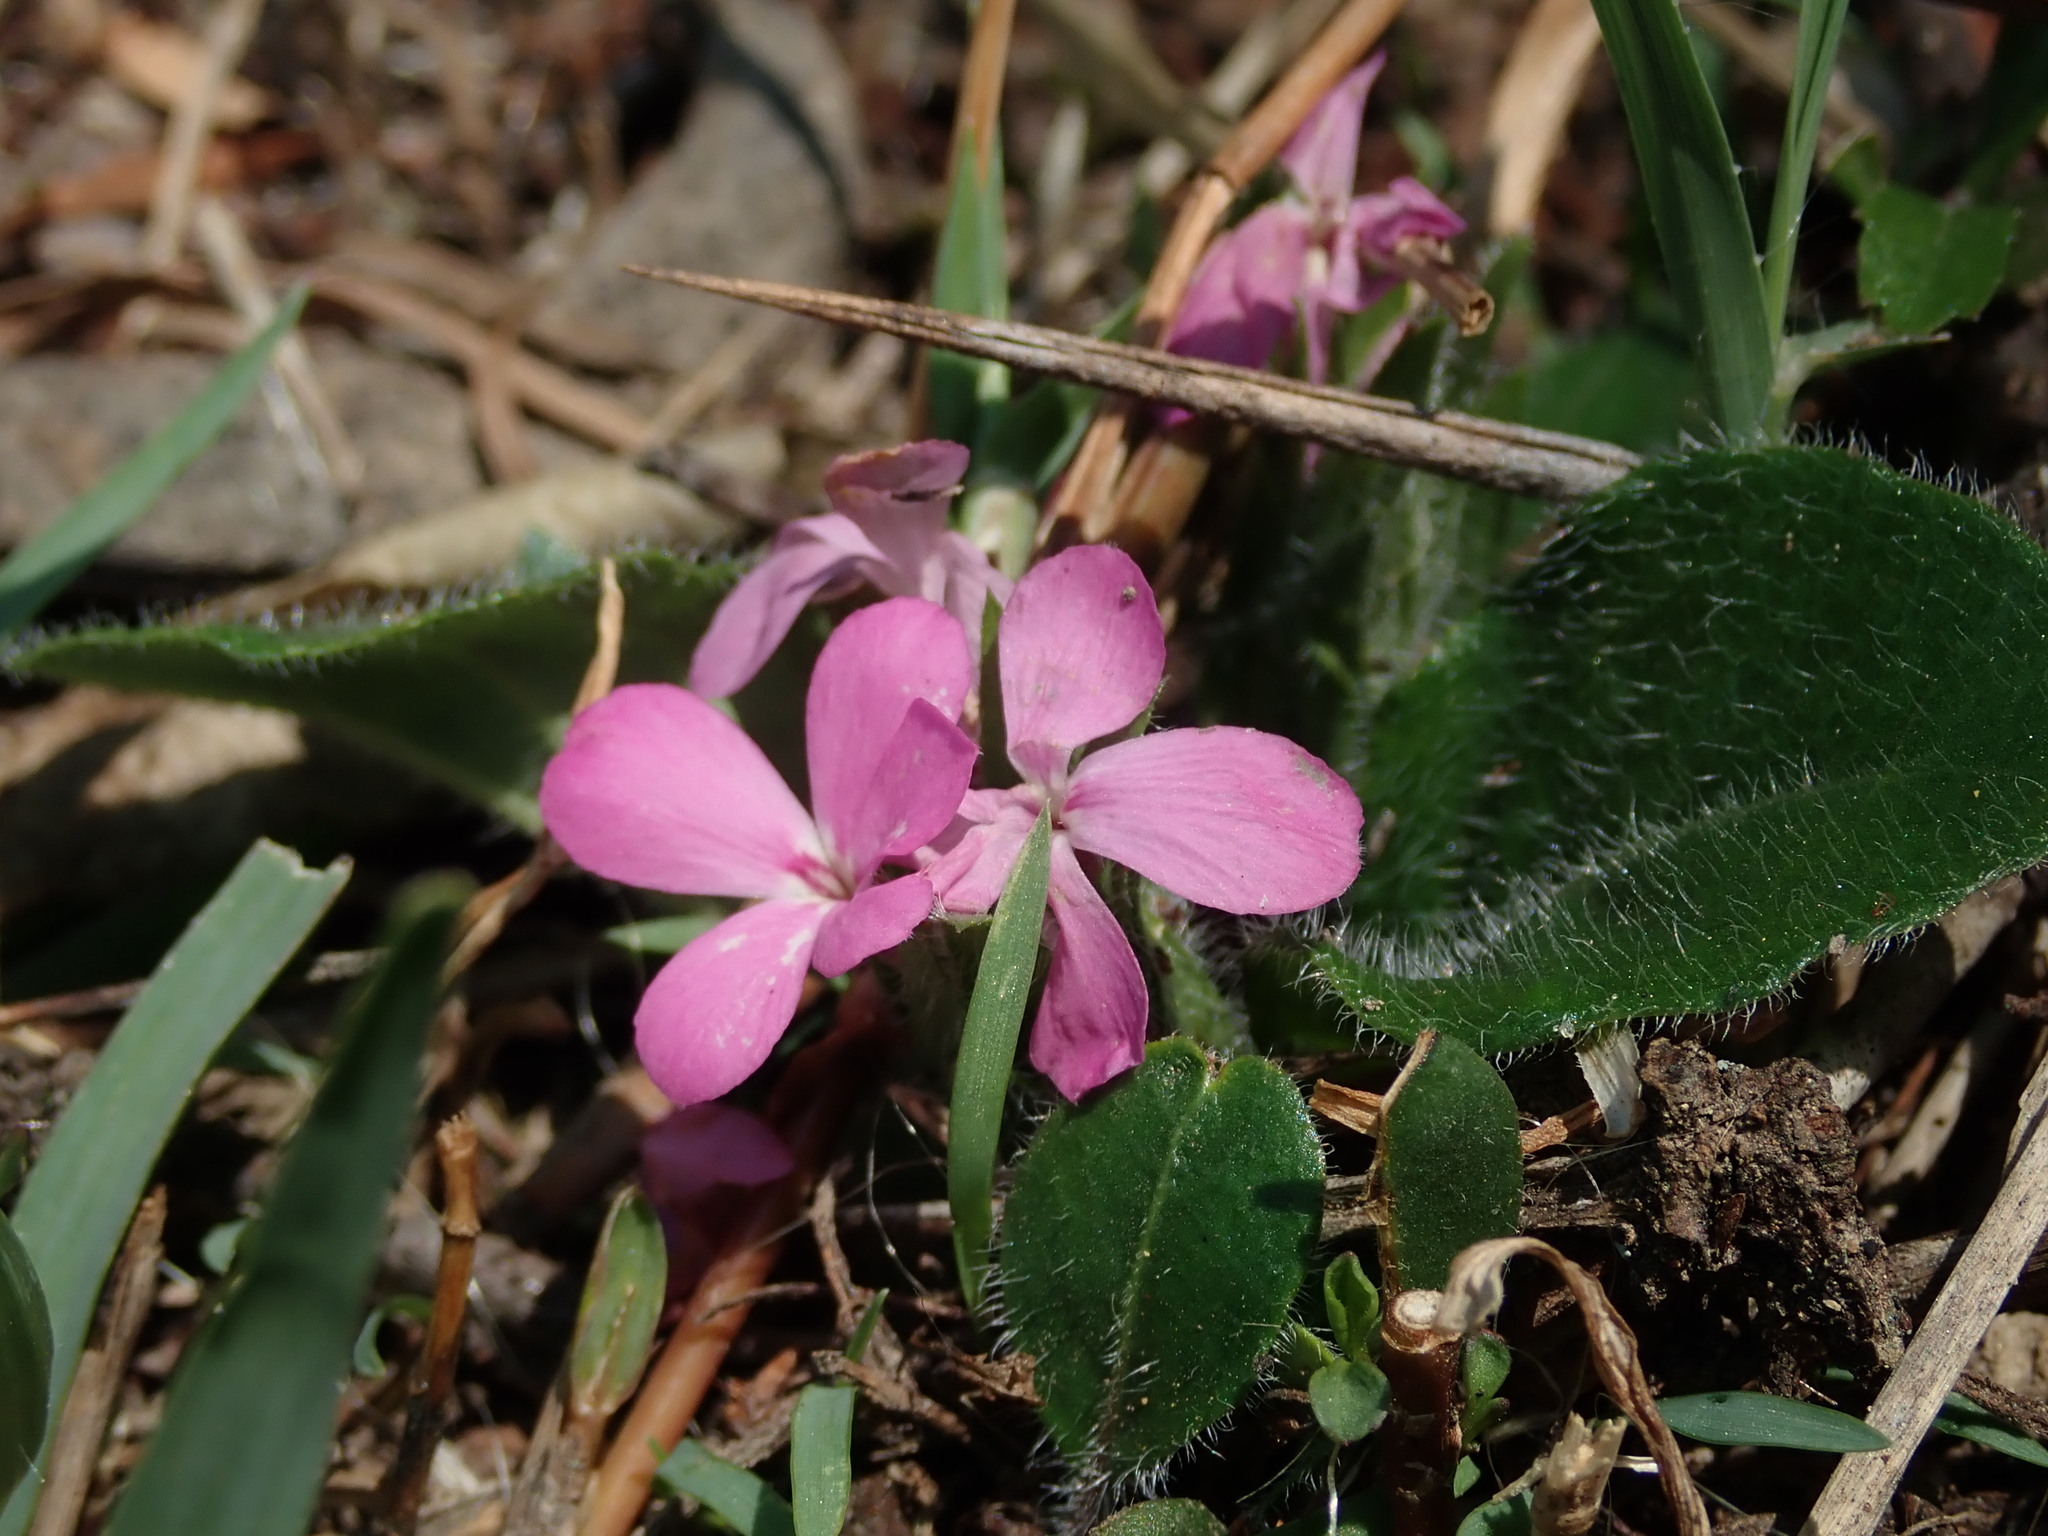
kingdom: Plantae
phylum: Tracheophyta
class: Magnoliopsida
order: Lamiales
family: Acanthaceae
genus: Stenandrium
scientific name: Stenandrium dulce
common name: Pinklet
